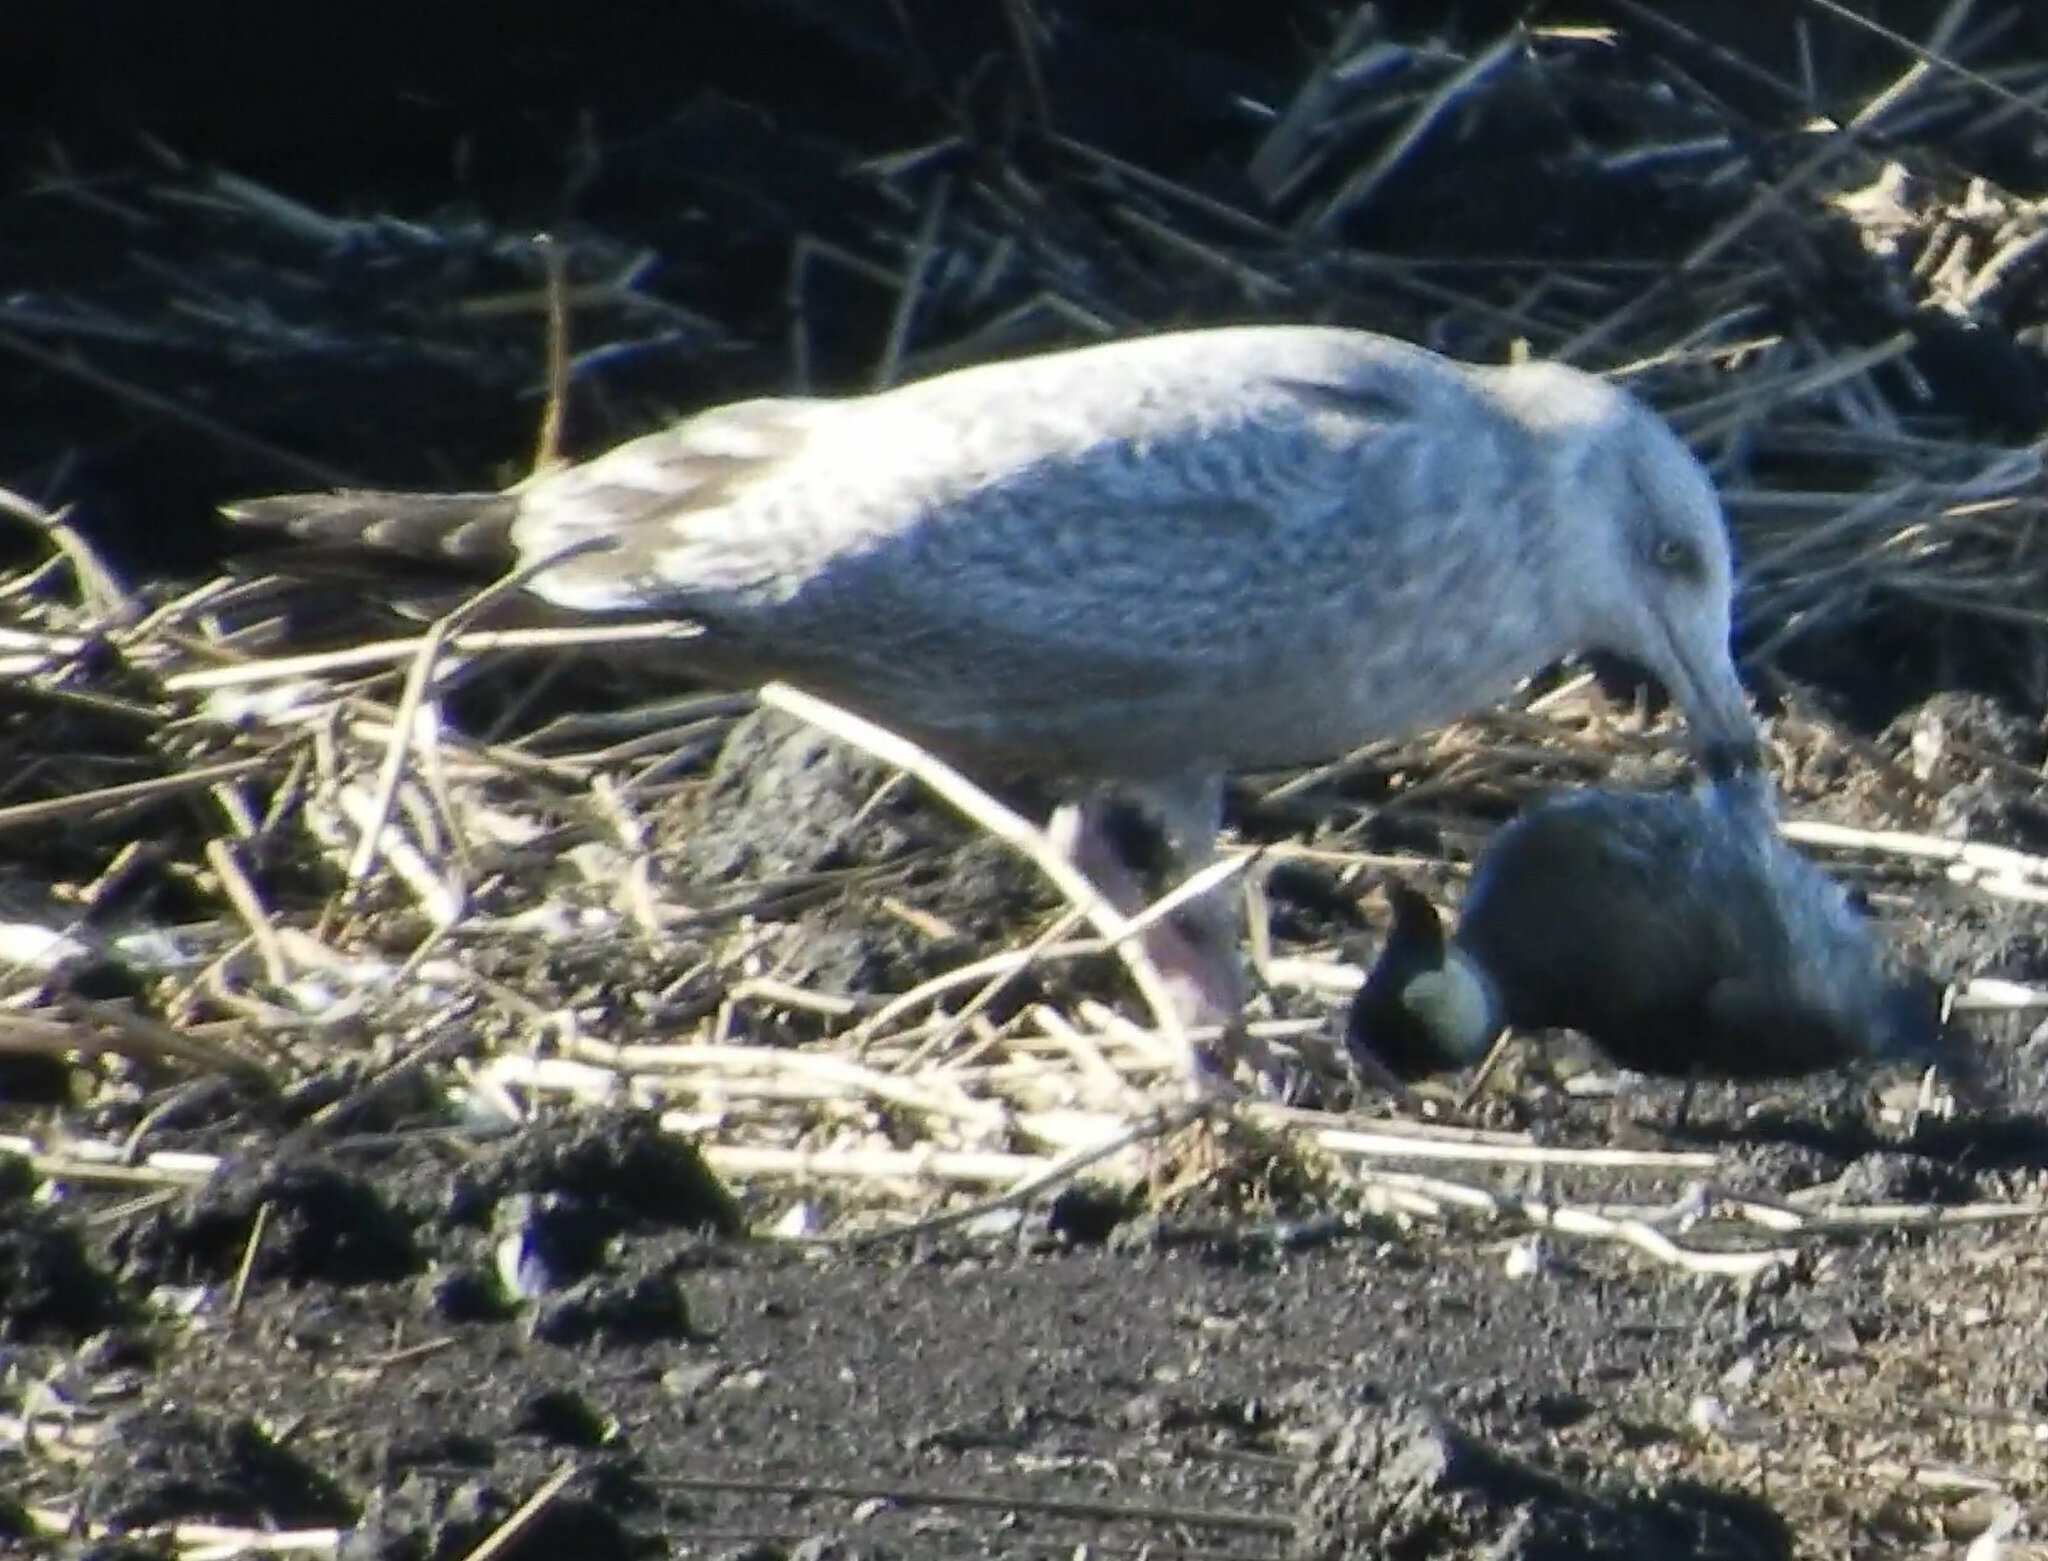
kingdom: Animalia
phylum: Chordata
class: Aves
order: Charadriiformes
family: Laridae
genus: Larus
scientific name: Larus argentatus
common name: Herring gull
